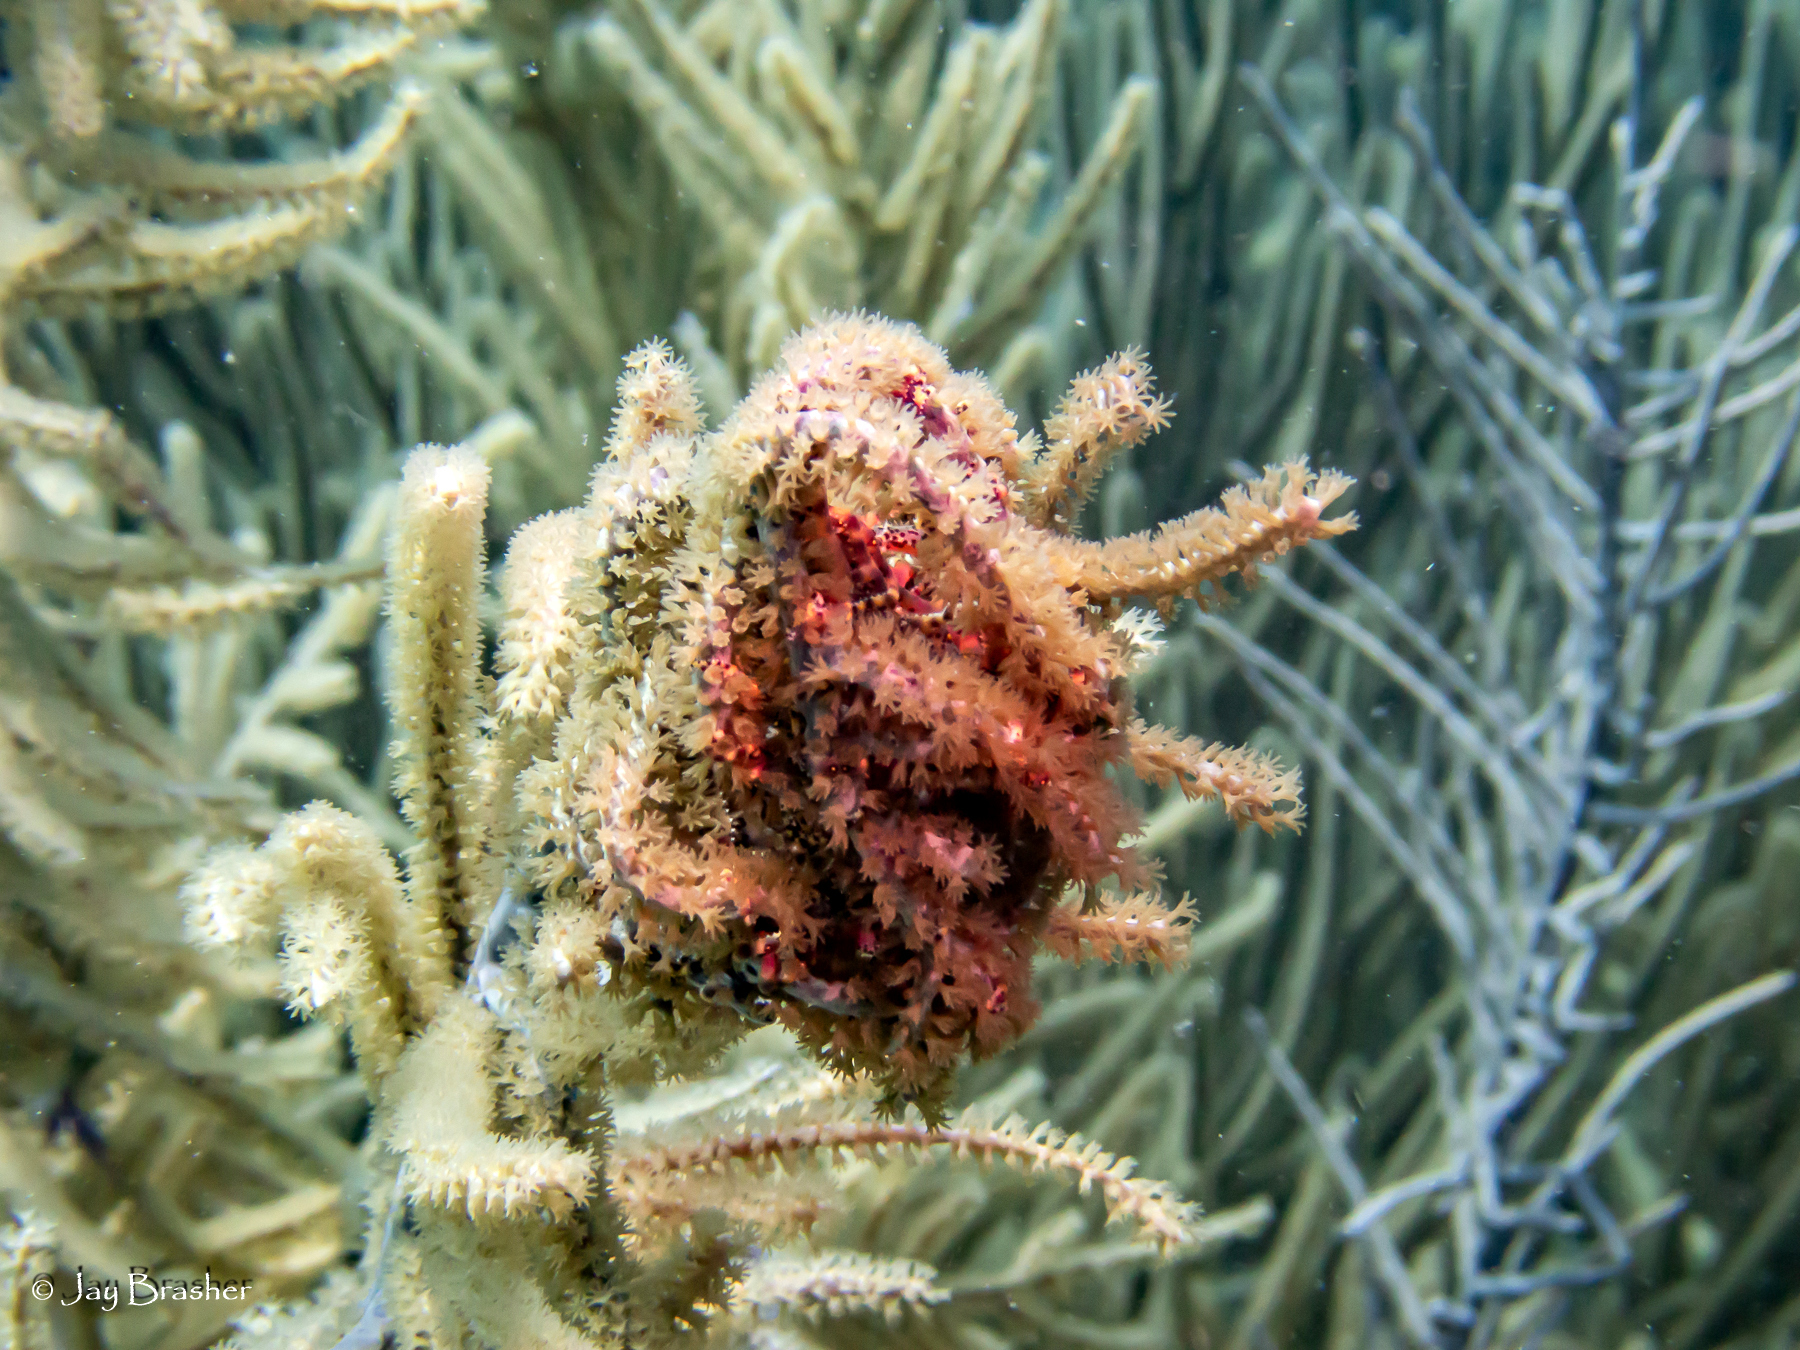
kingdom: Animalia
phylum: Echinodermata
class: Ophiuroidea
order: Euryalida
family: Gorgonocephalidae
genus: Astrophyton
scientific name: Astrophyton muricatum
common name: Basket starfish
